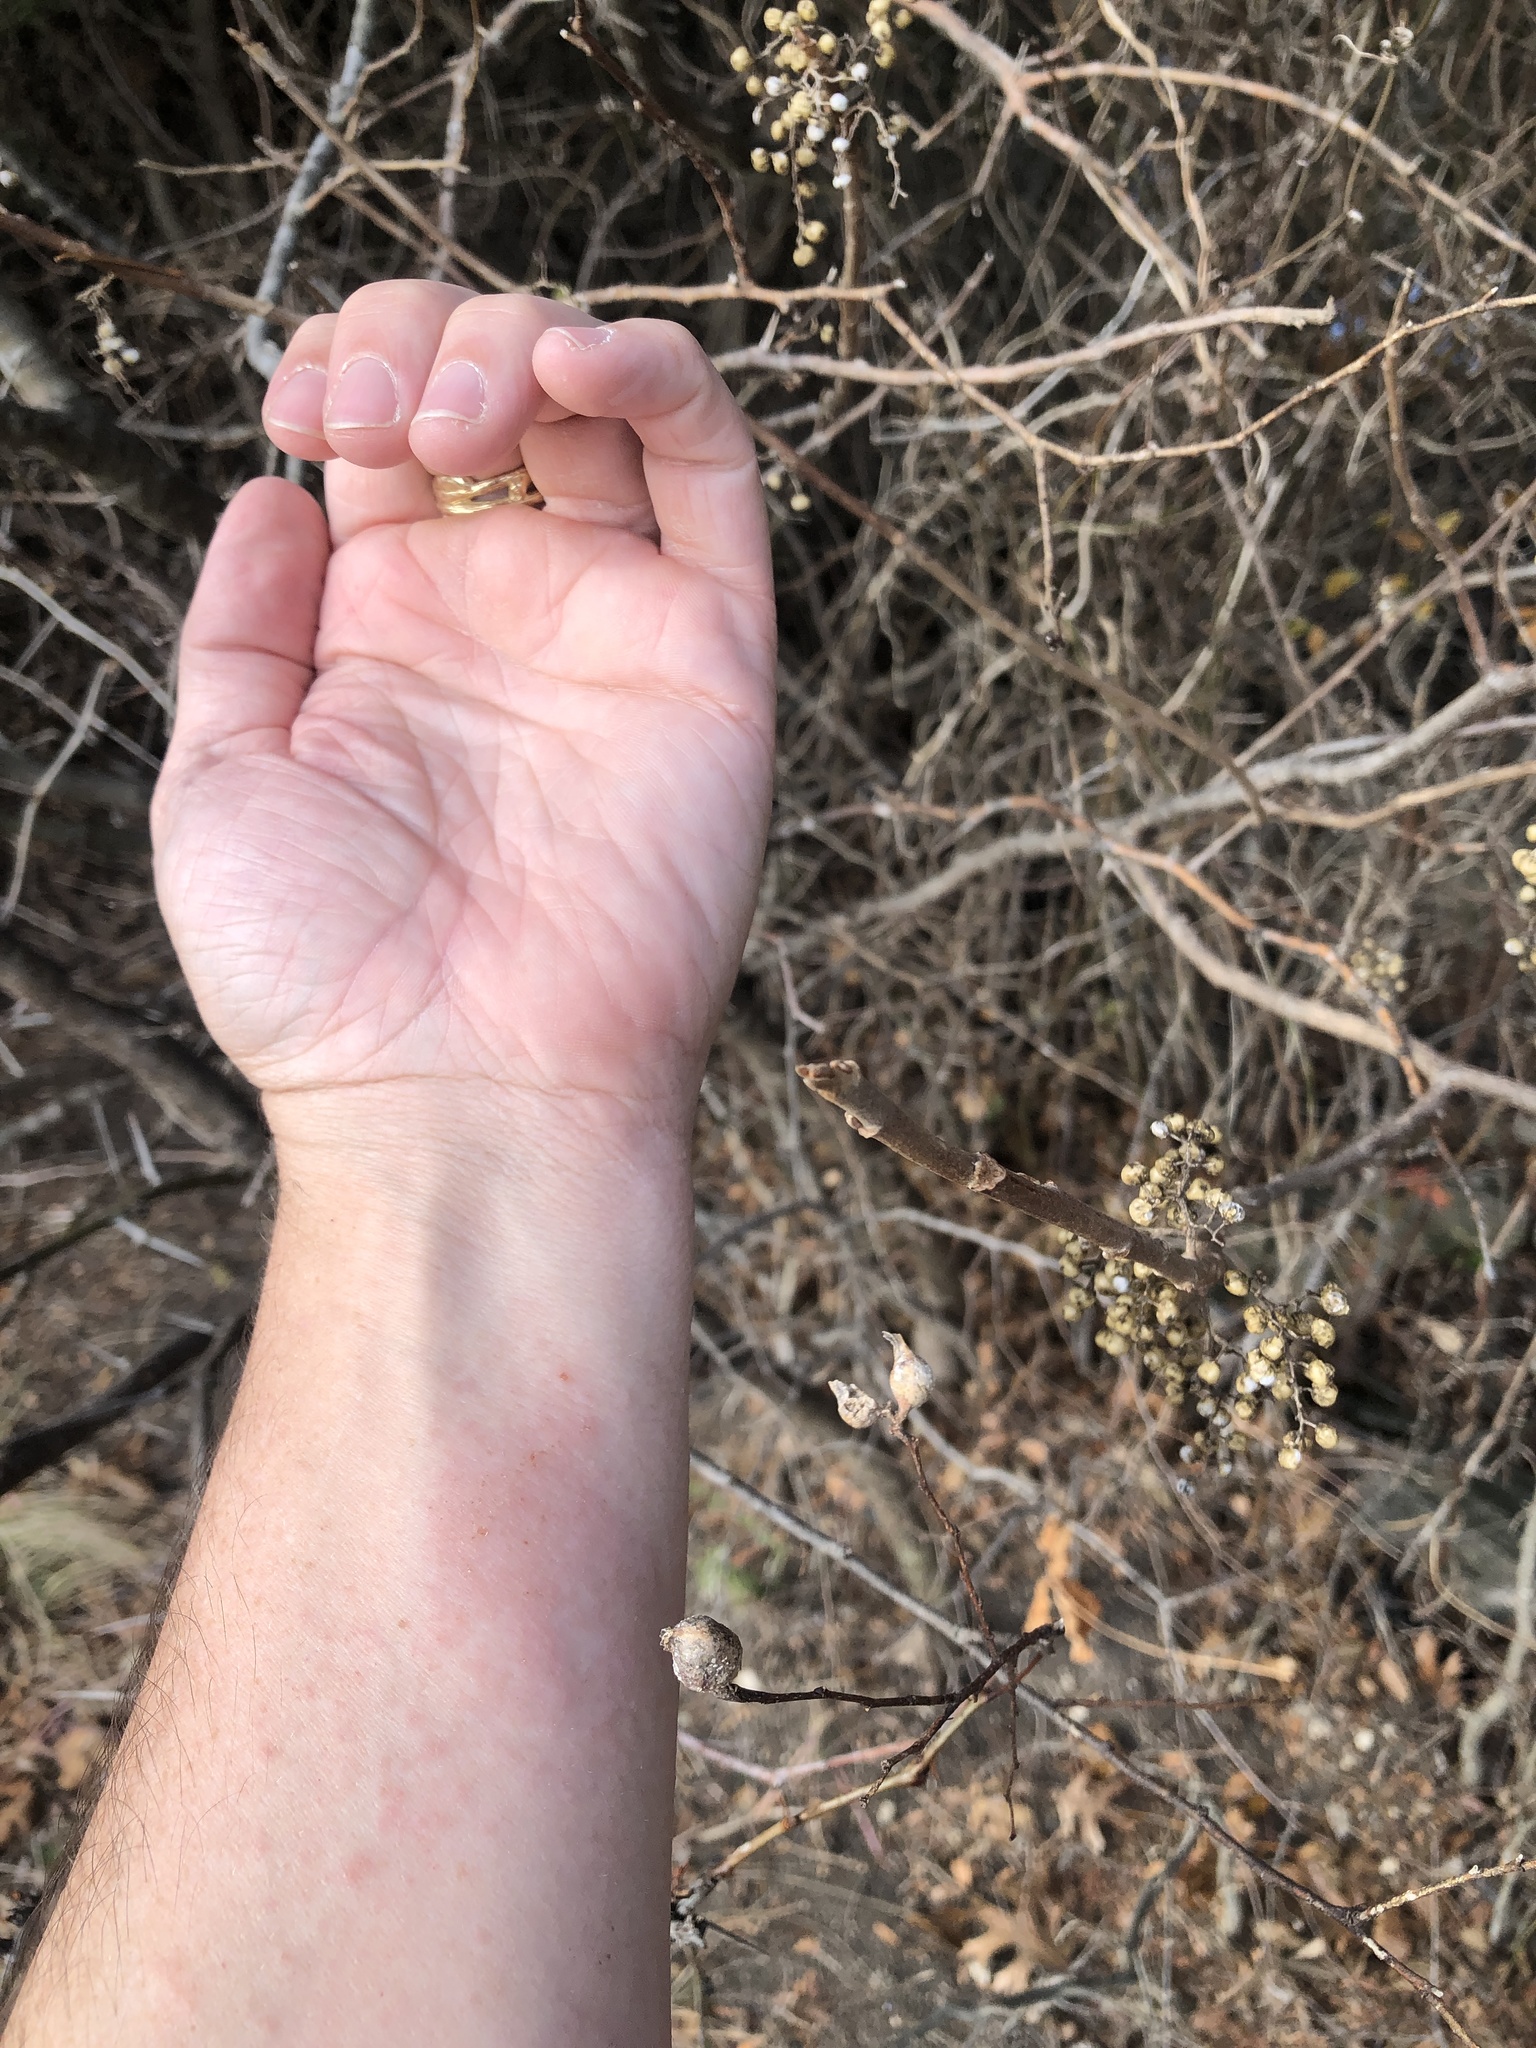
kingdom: Plantae
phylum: Tracheophyta
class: Magnoliopsida
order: Sapindales
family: Anacardiaceae
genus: Toxicodendron
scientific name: Toxicodendron radicans
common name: Poison ivy
